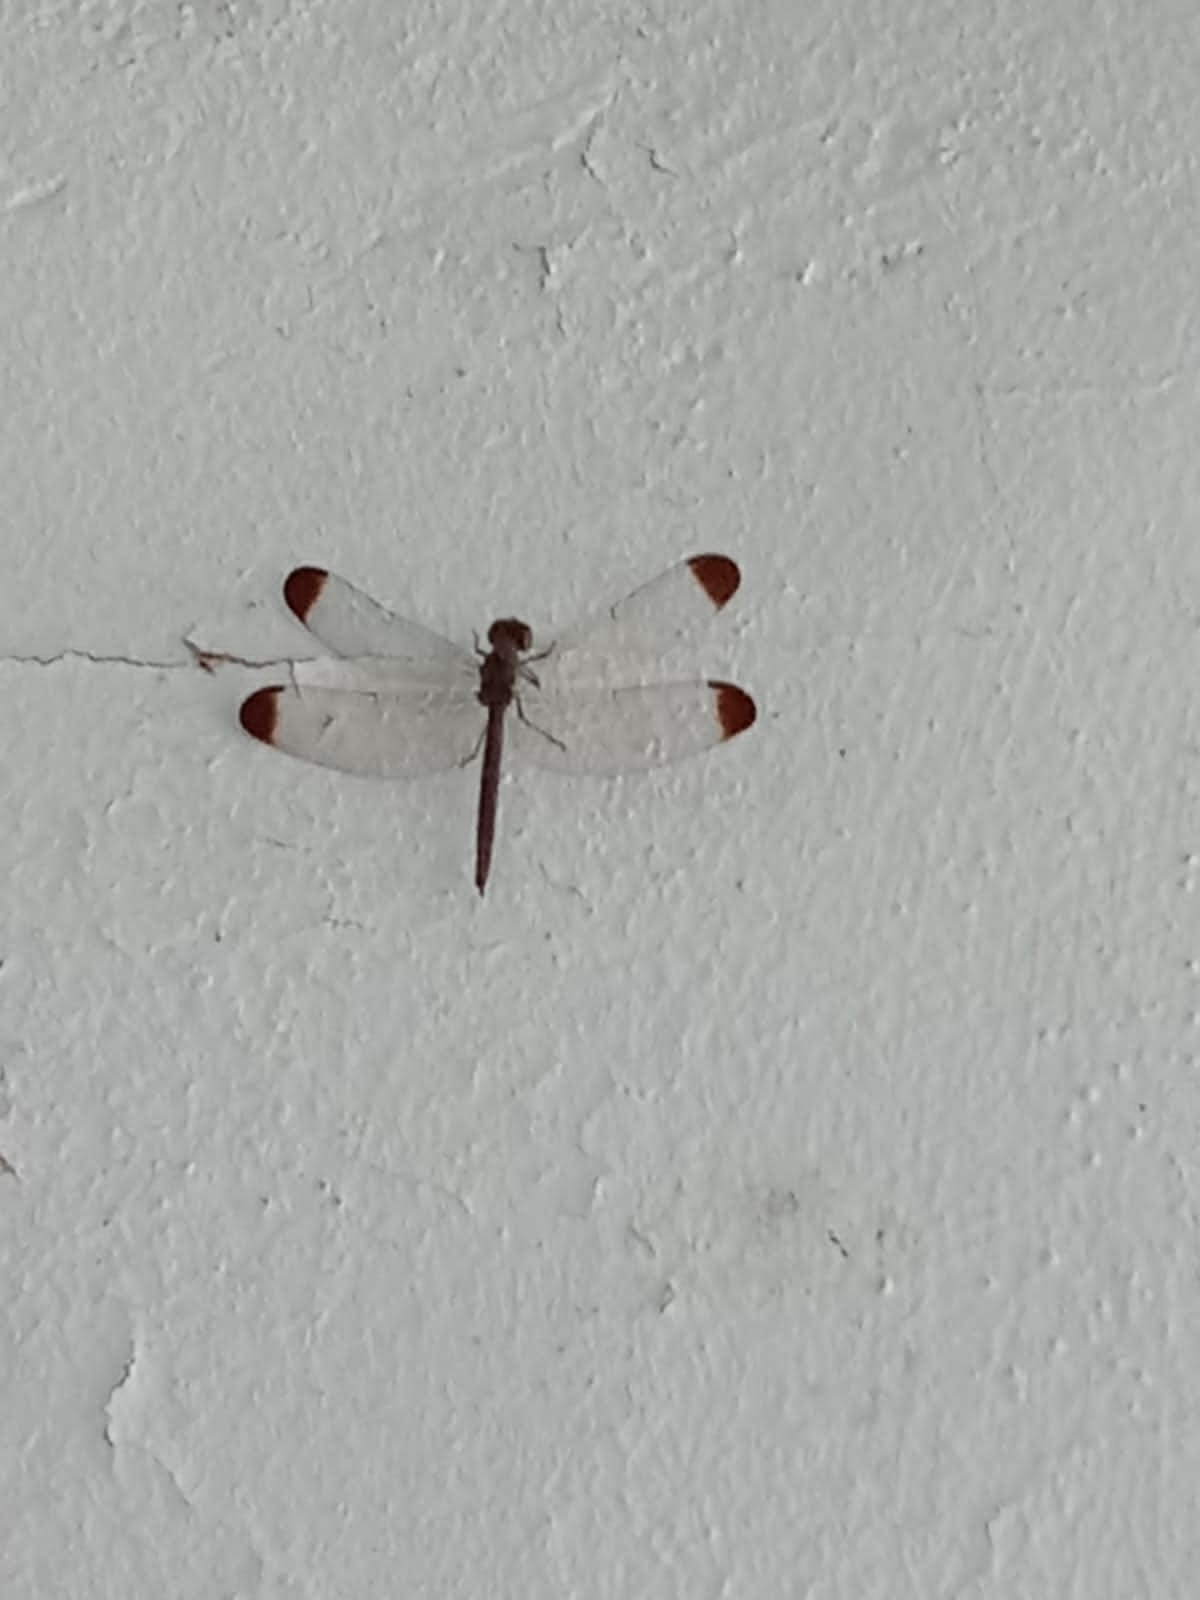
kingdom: Animalia
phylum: Arthropoda
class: Insecta
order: Odonata
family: Libellulidae
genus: Uracis
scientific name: Uracis imbuta
